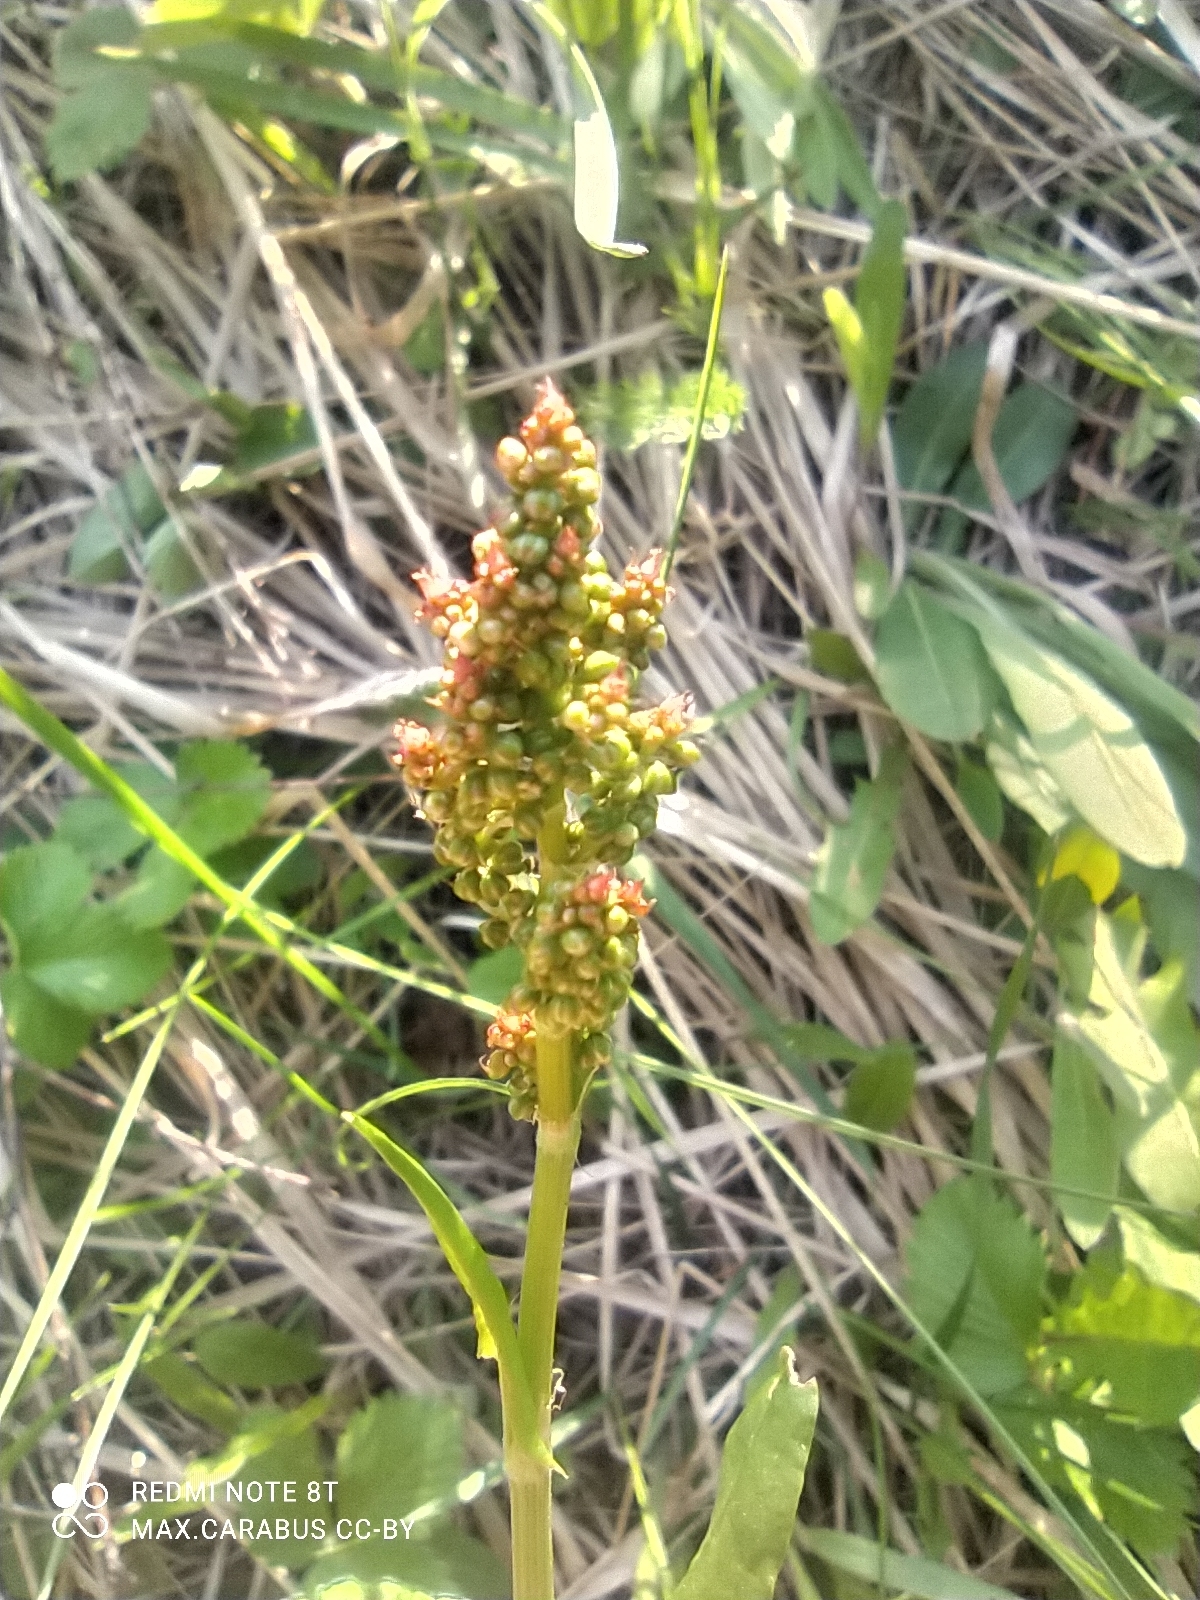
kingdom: Plantae
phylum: Tracheophyta
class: Magnoliopsida
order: Caryophyllales
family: Polygonaceae
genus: Rumex
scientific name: Rumex acetosa
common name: Garden sorrel
